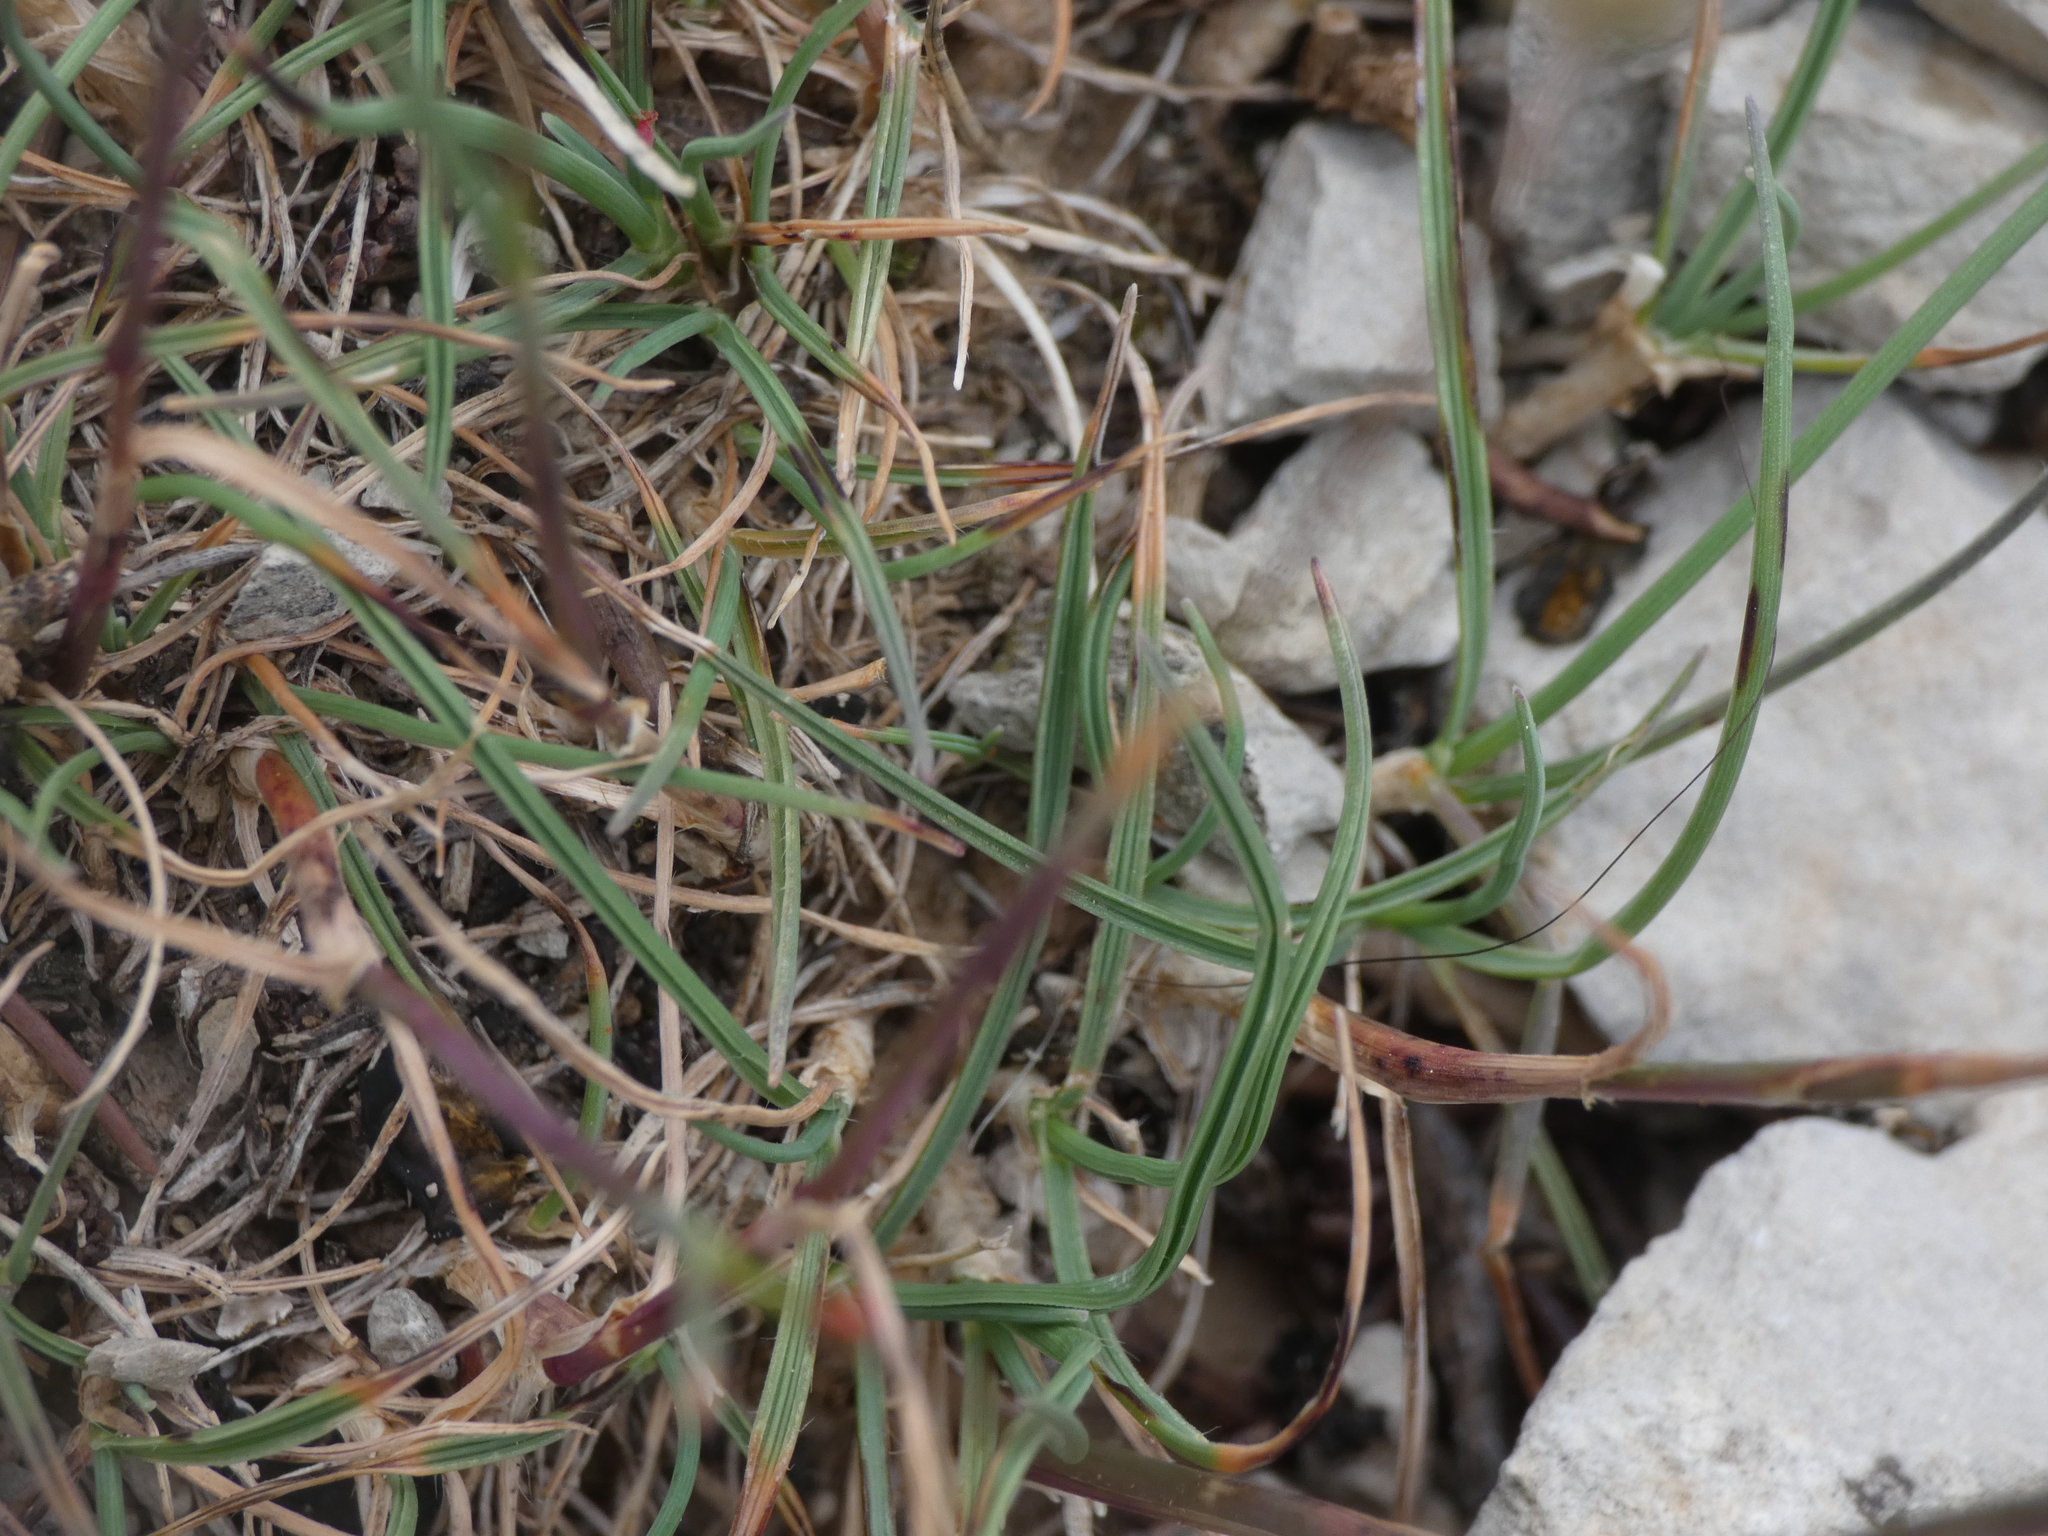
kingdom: Plantae
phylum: Tracheophyta
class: Liliopsida
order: Poales
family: Poaceae
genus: Koeleria
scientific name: Koeleria vallesiana
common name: Somerset hair-grass
